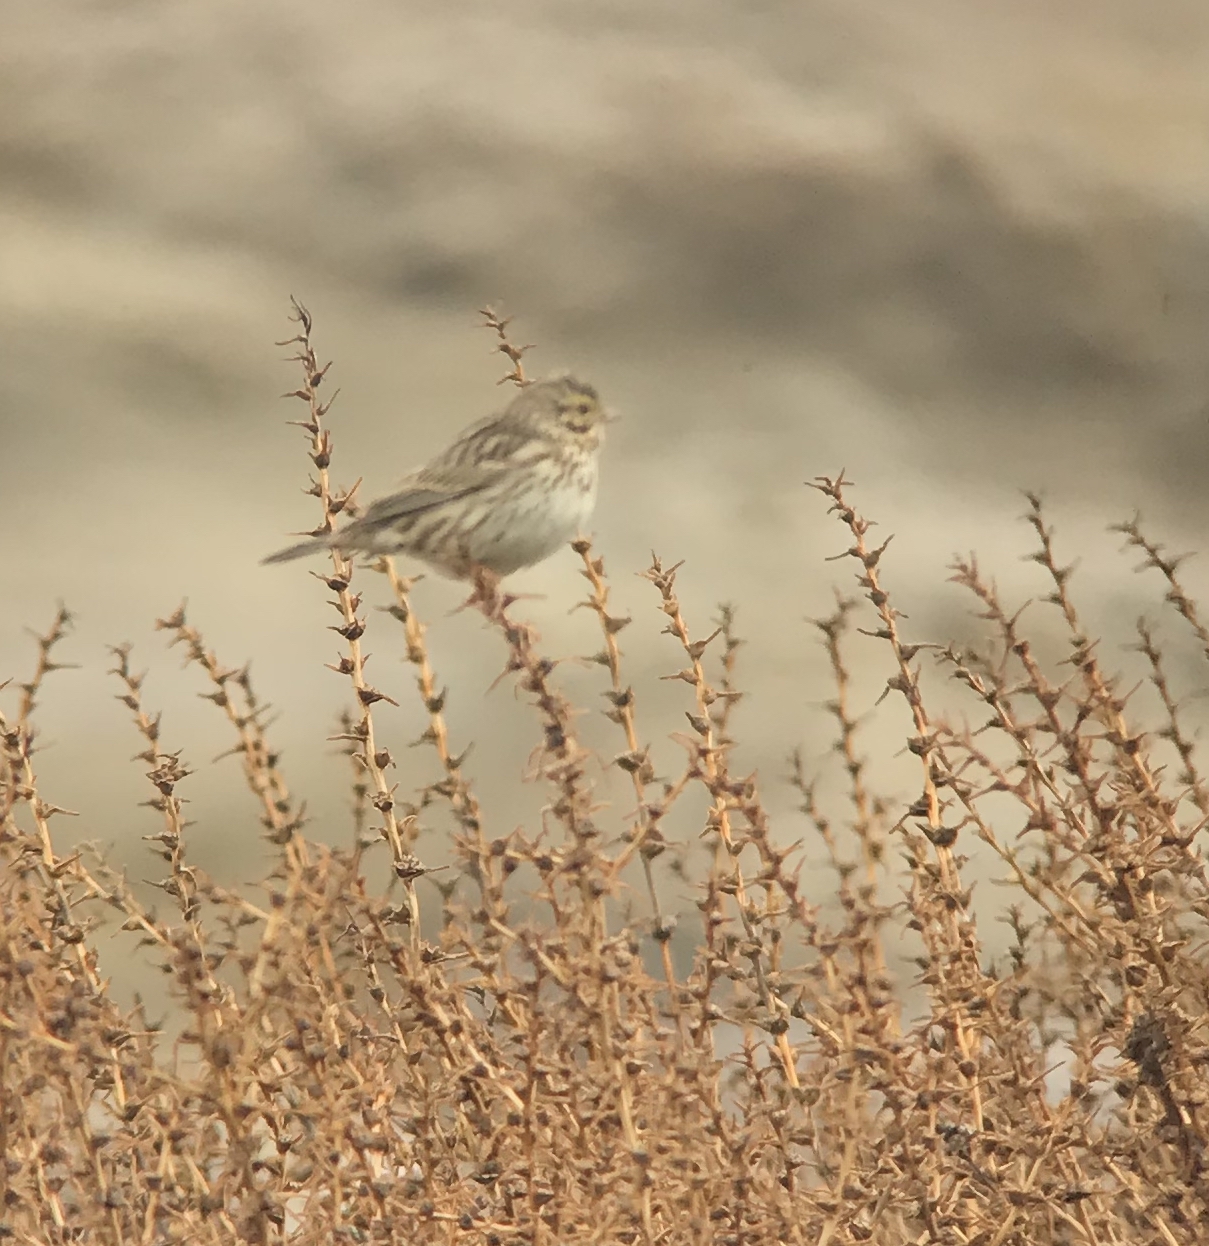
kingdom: Animalia
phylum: Chordata
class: Aves
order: Passeriformes
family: Passerellidae
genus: Passerculus
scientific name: Passerculus sandwichensis
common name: Savannah sparrow
